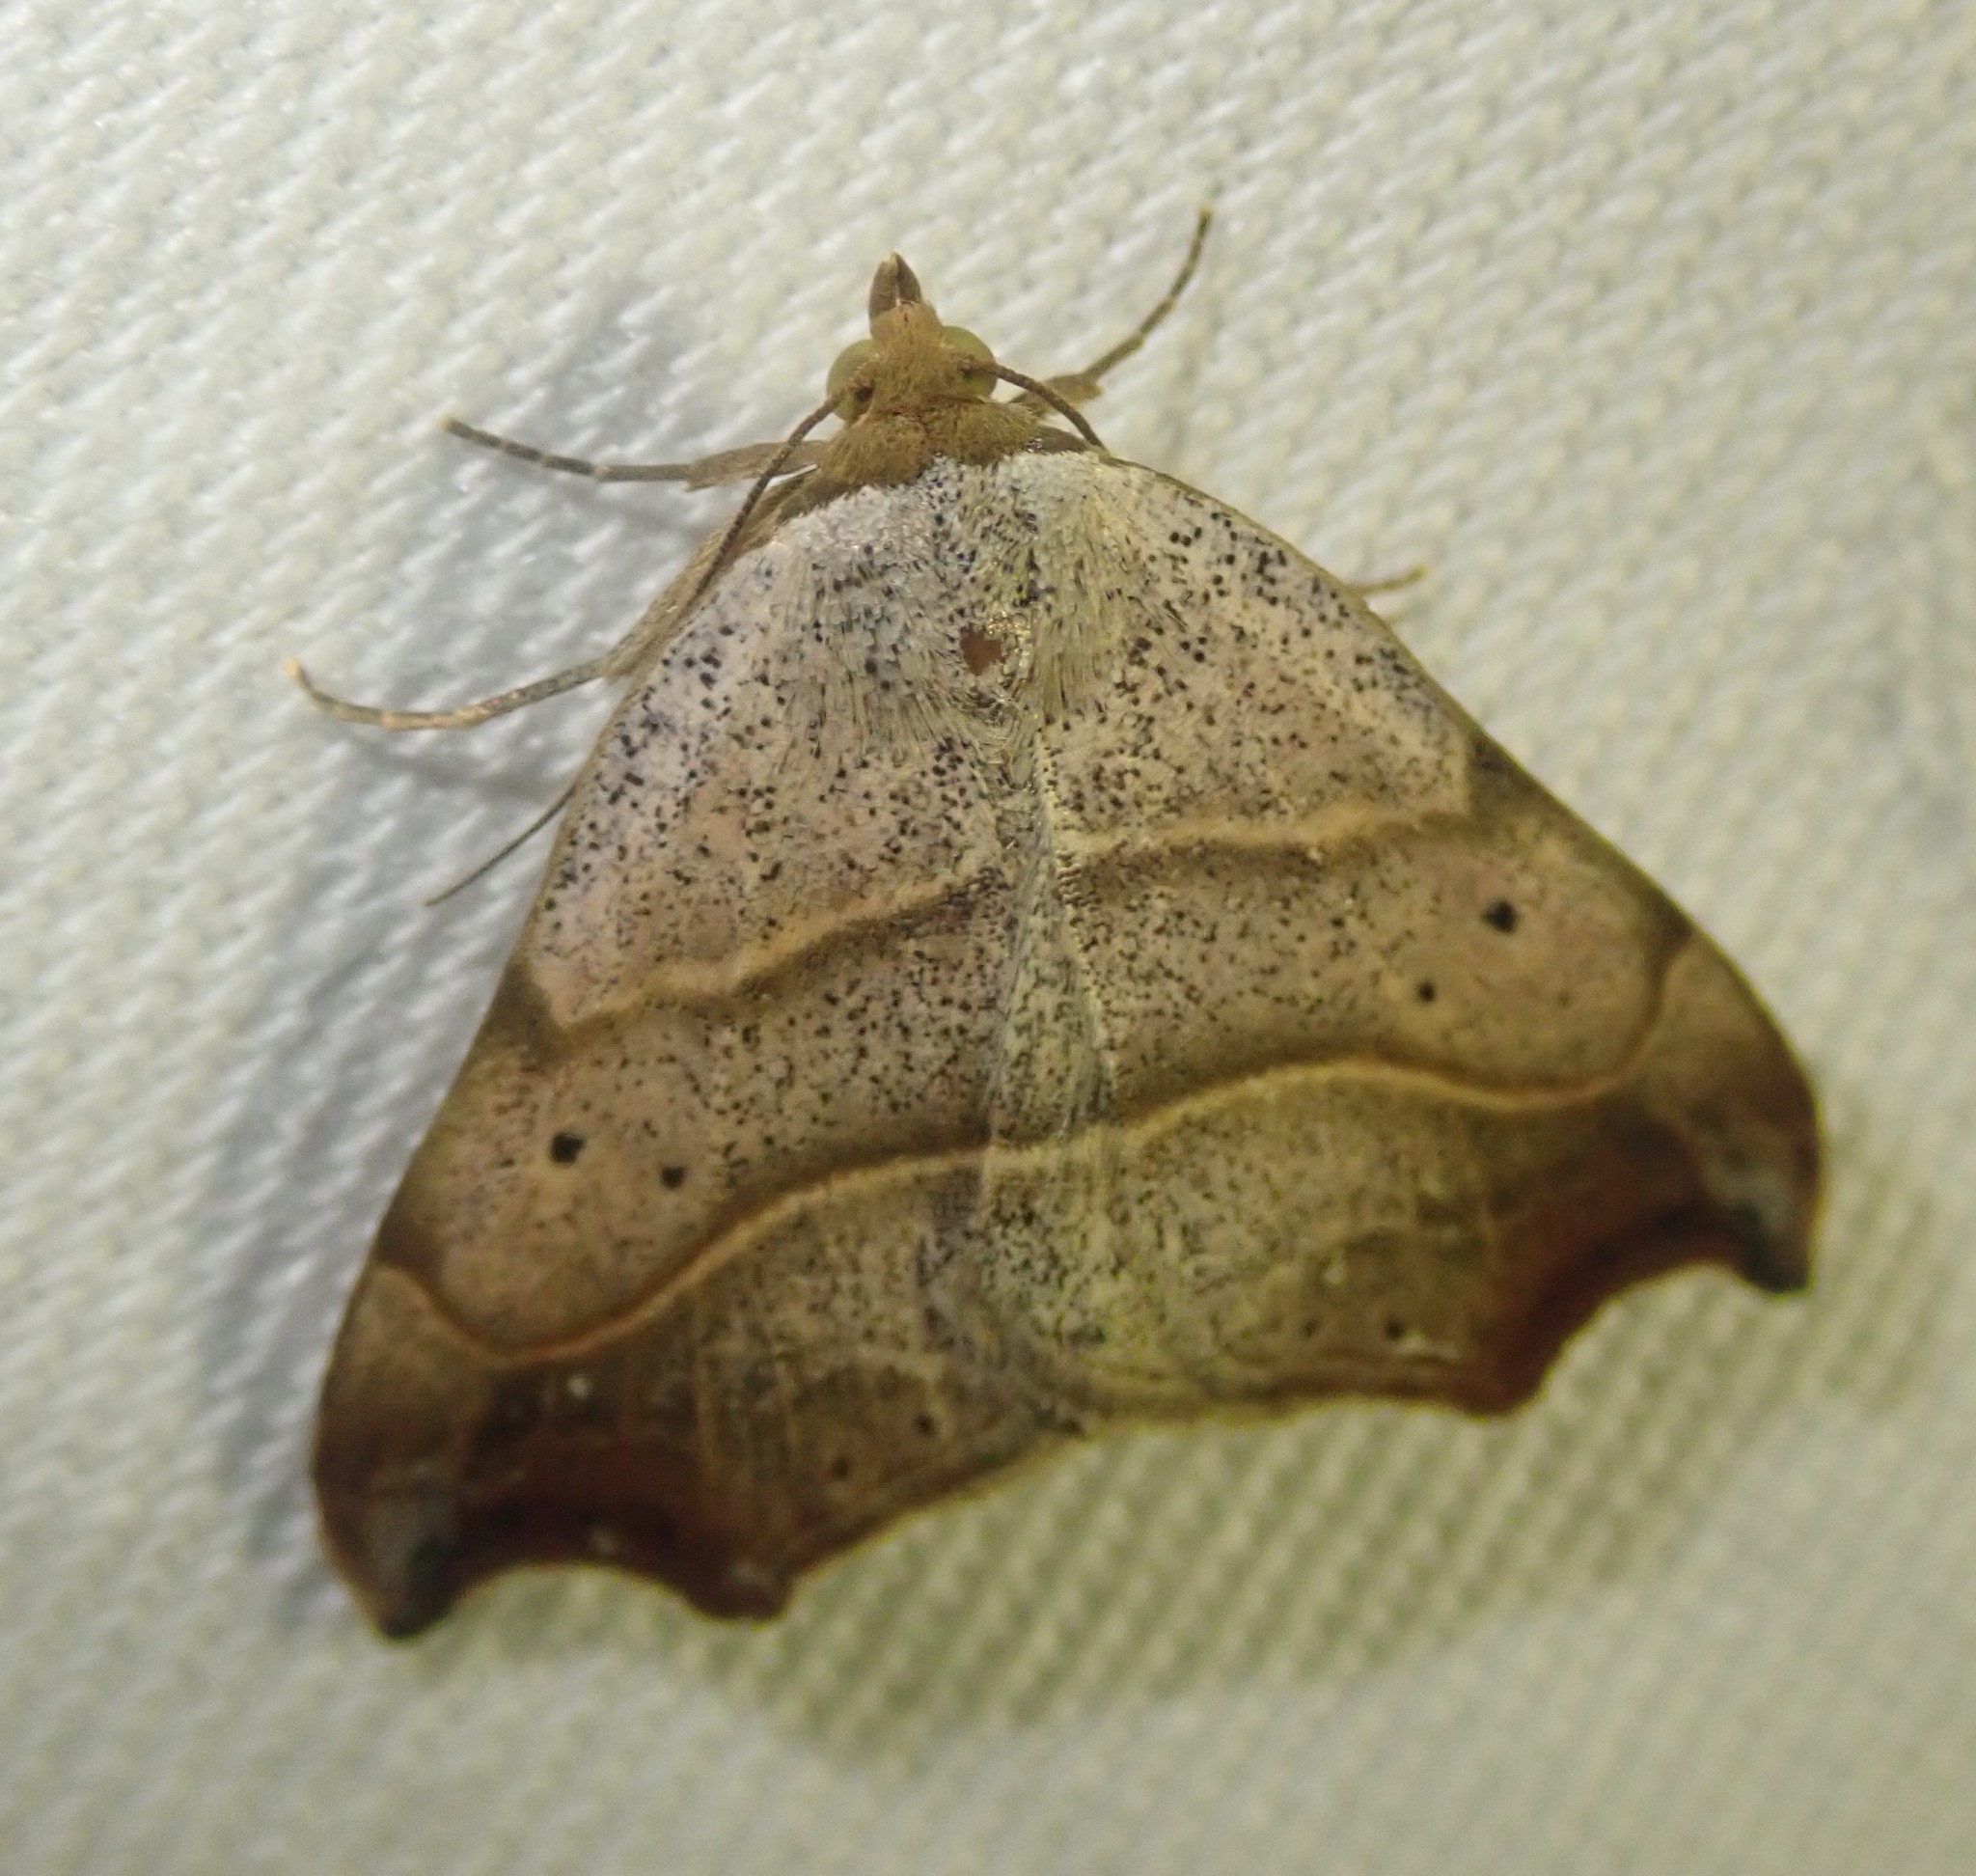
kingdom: Animalia
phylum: Arthropoda
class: Insecta
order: Lepidoptera
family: Erebidae
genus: Laspeyria
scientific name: Laspeyria flexula
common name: Beautiful hook-tip
